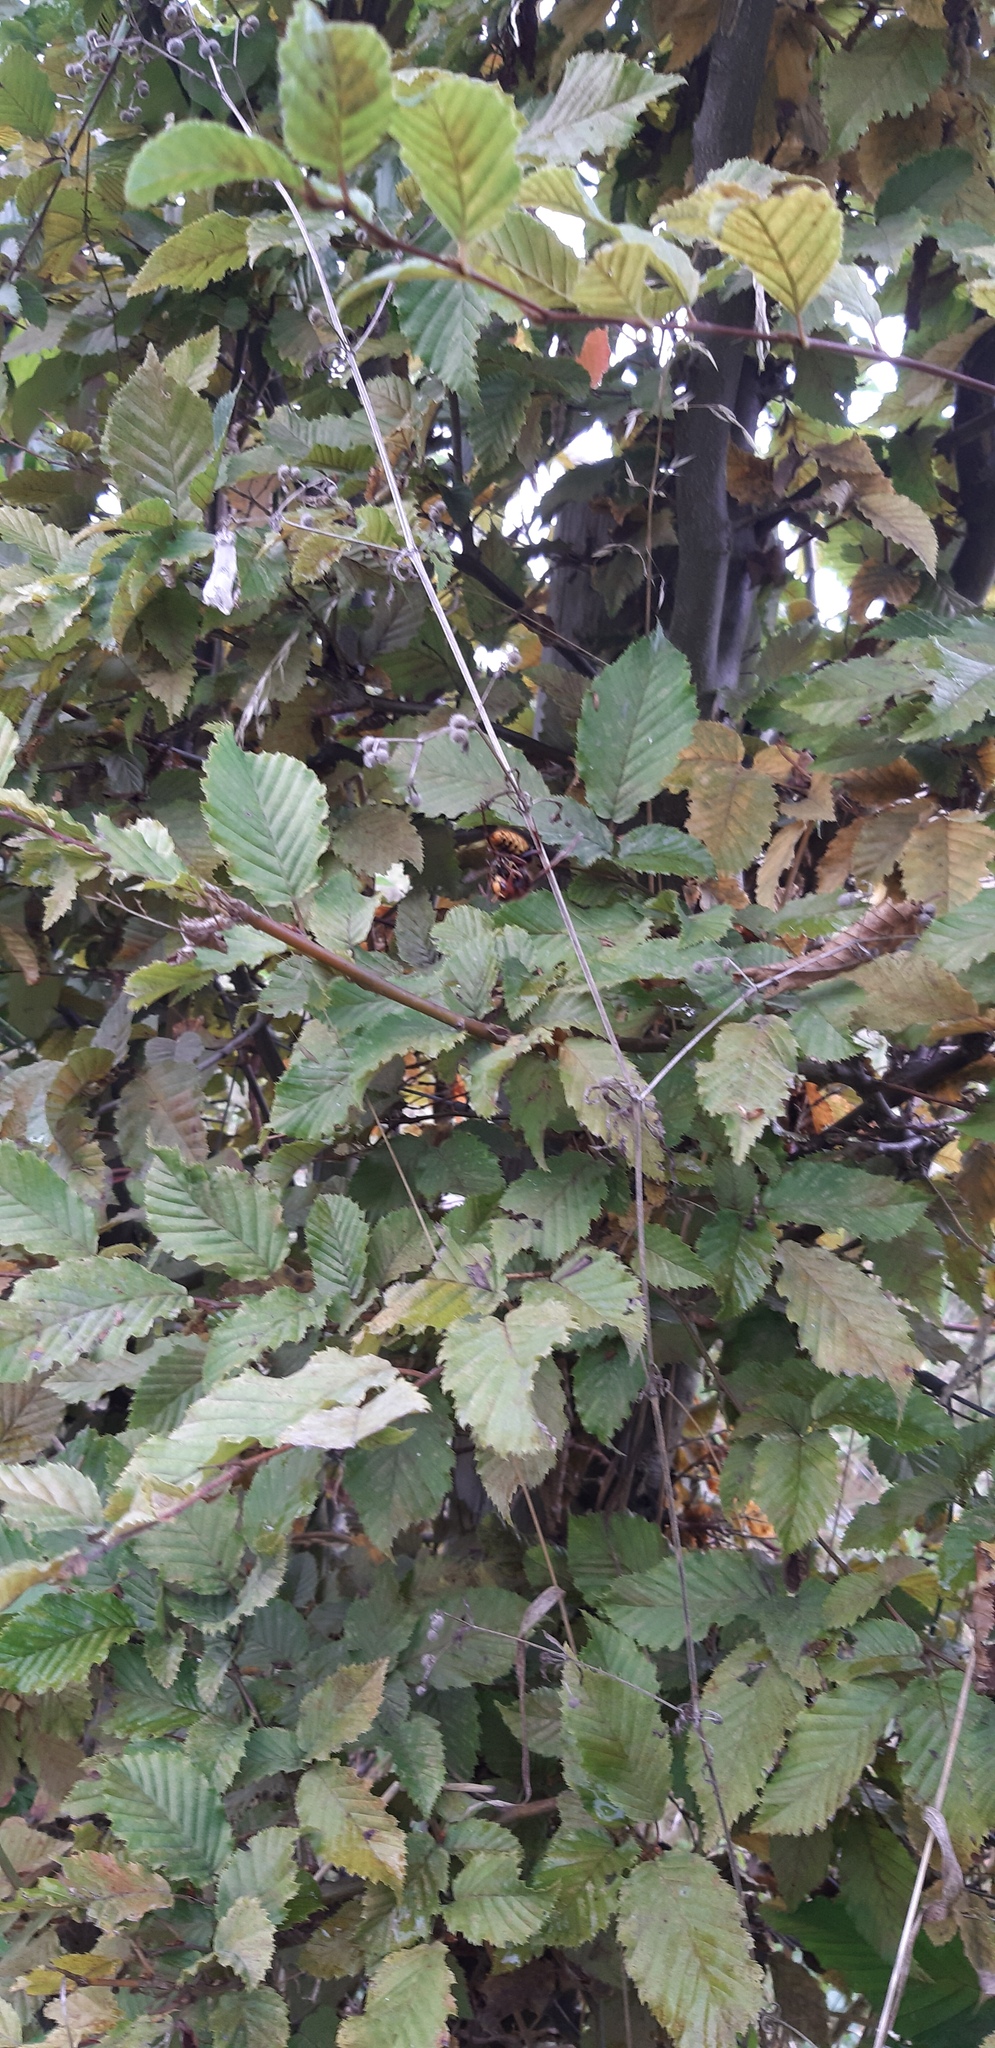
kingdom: Animalia
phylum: Arthropoda
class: Insecta
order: Hymenoptera
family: Vespidae
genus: Vespa
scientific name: Vespa crabro
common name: Hornet
